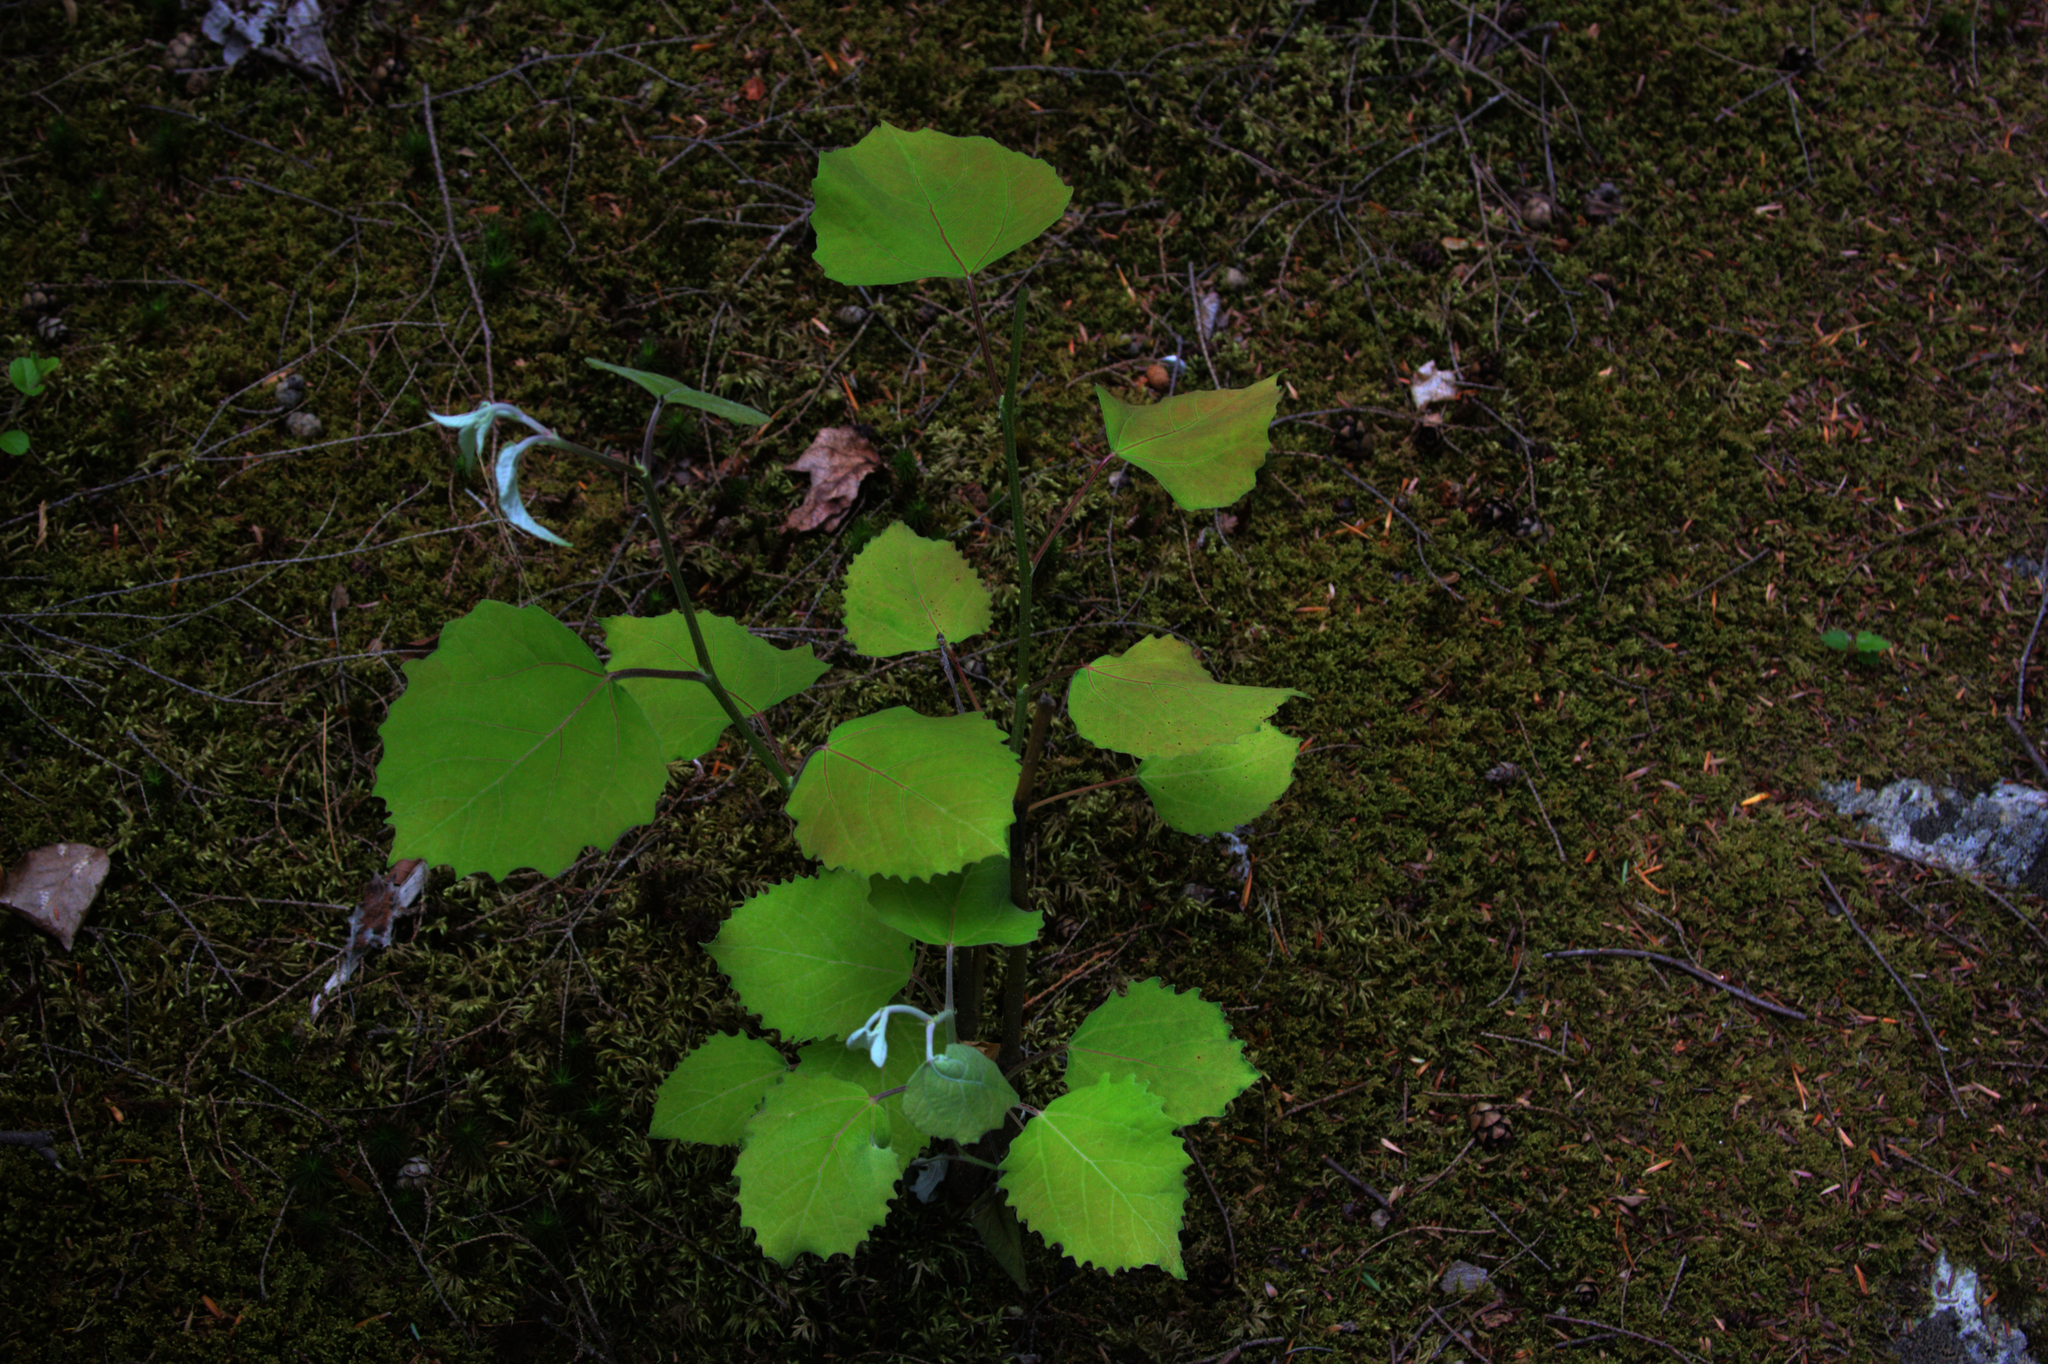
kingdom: Plantae
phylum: Tracheophyta
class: Magnoliopsida
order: Malpighiales
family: Salicaceae
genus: Populus
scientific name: Populus grandidentata
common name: Bigtooth aspen
